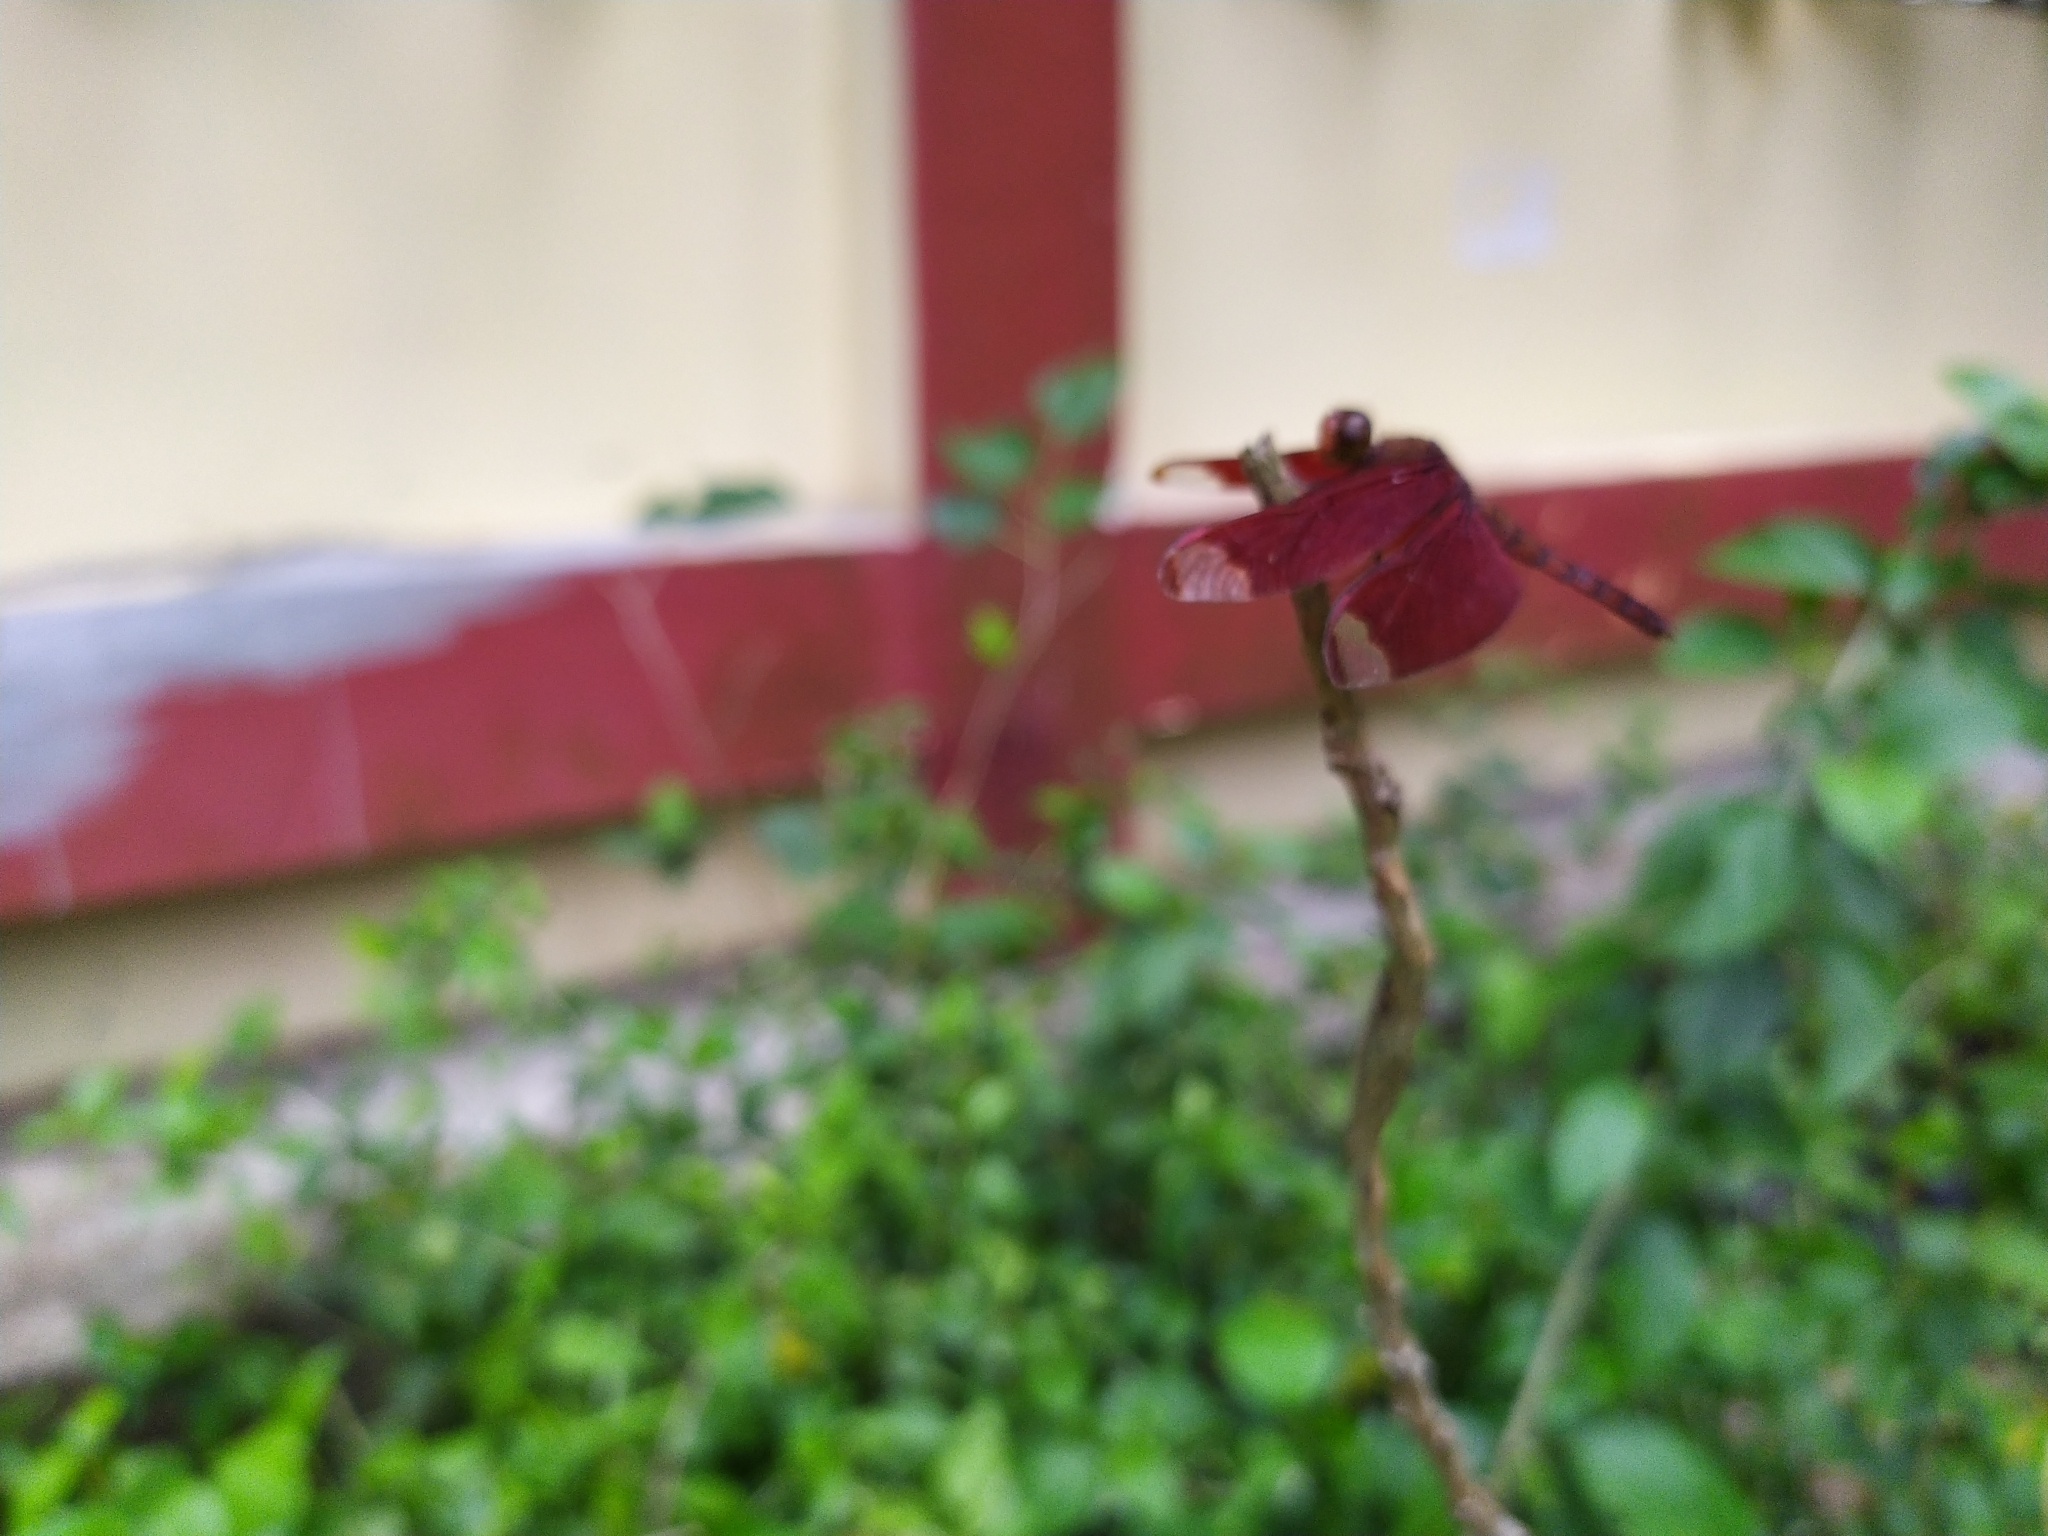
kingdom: Animalia
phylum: Arthropoda
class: Insecta
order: Odonata
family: Libellulidae
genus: Neurothemis
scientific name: Neurothemis fulvia
